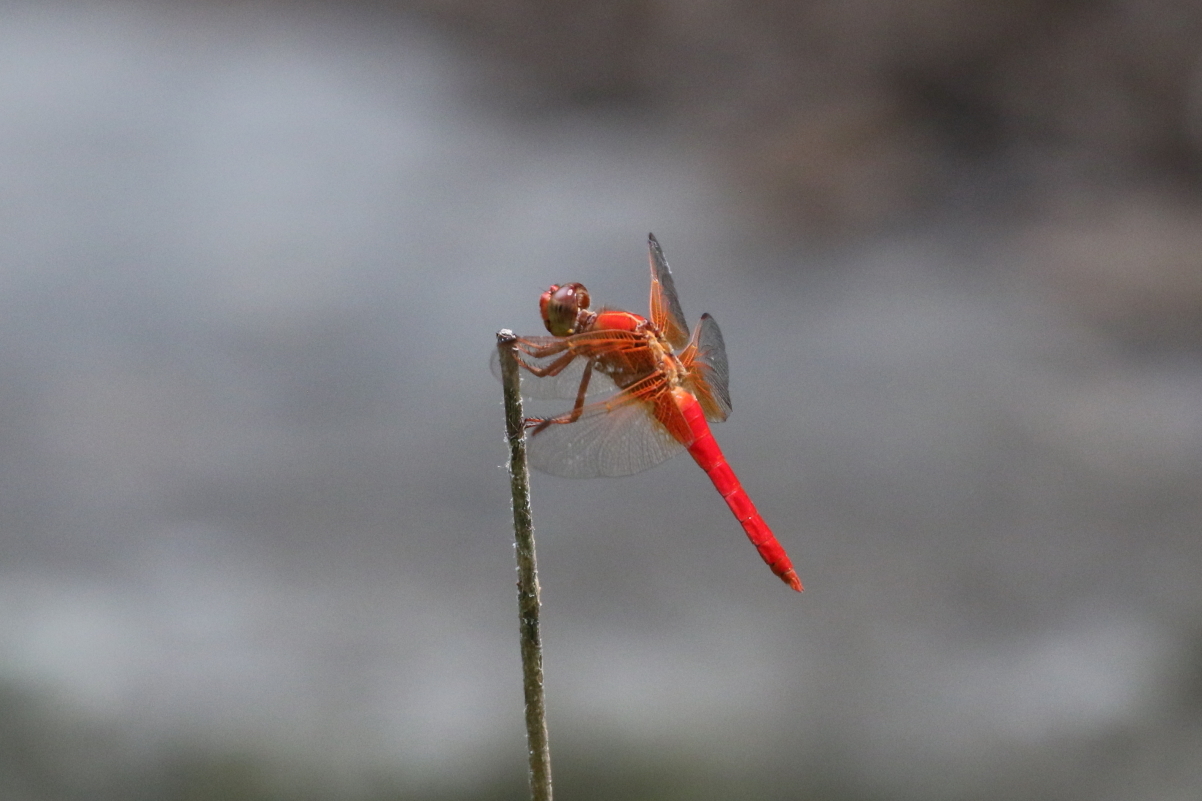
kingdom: Animalia
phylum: Arthropoda
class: Insecta
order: Odonata
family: Libellulidae
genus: Libellula
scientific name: Libellula croceipennis
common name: Neon skimmer
